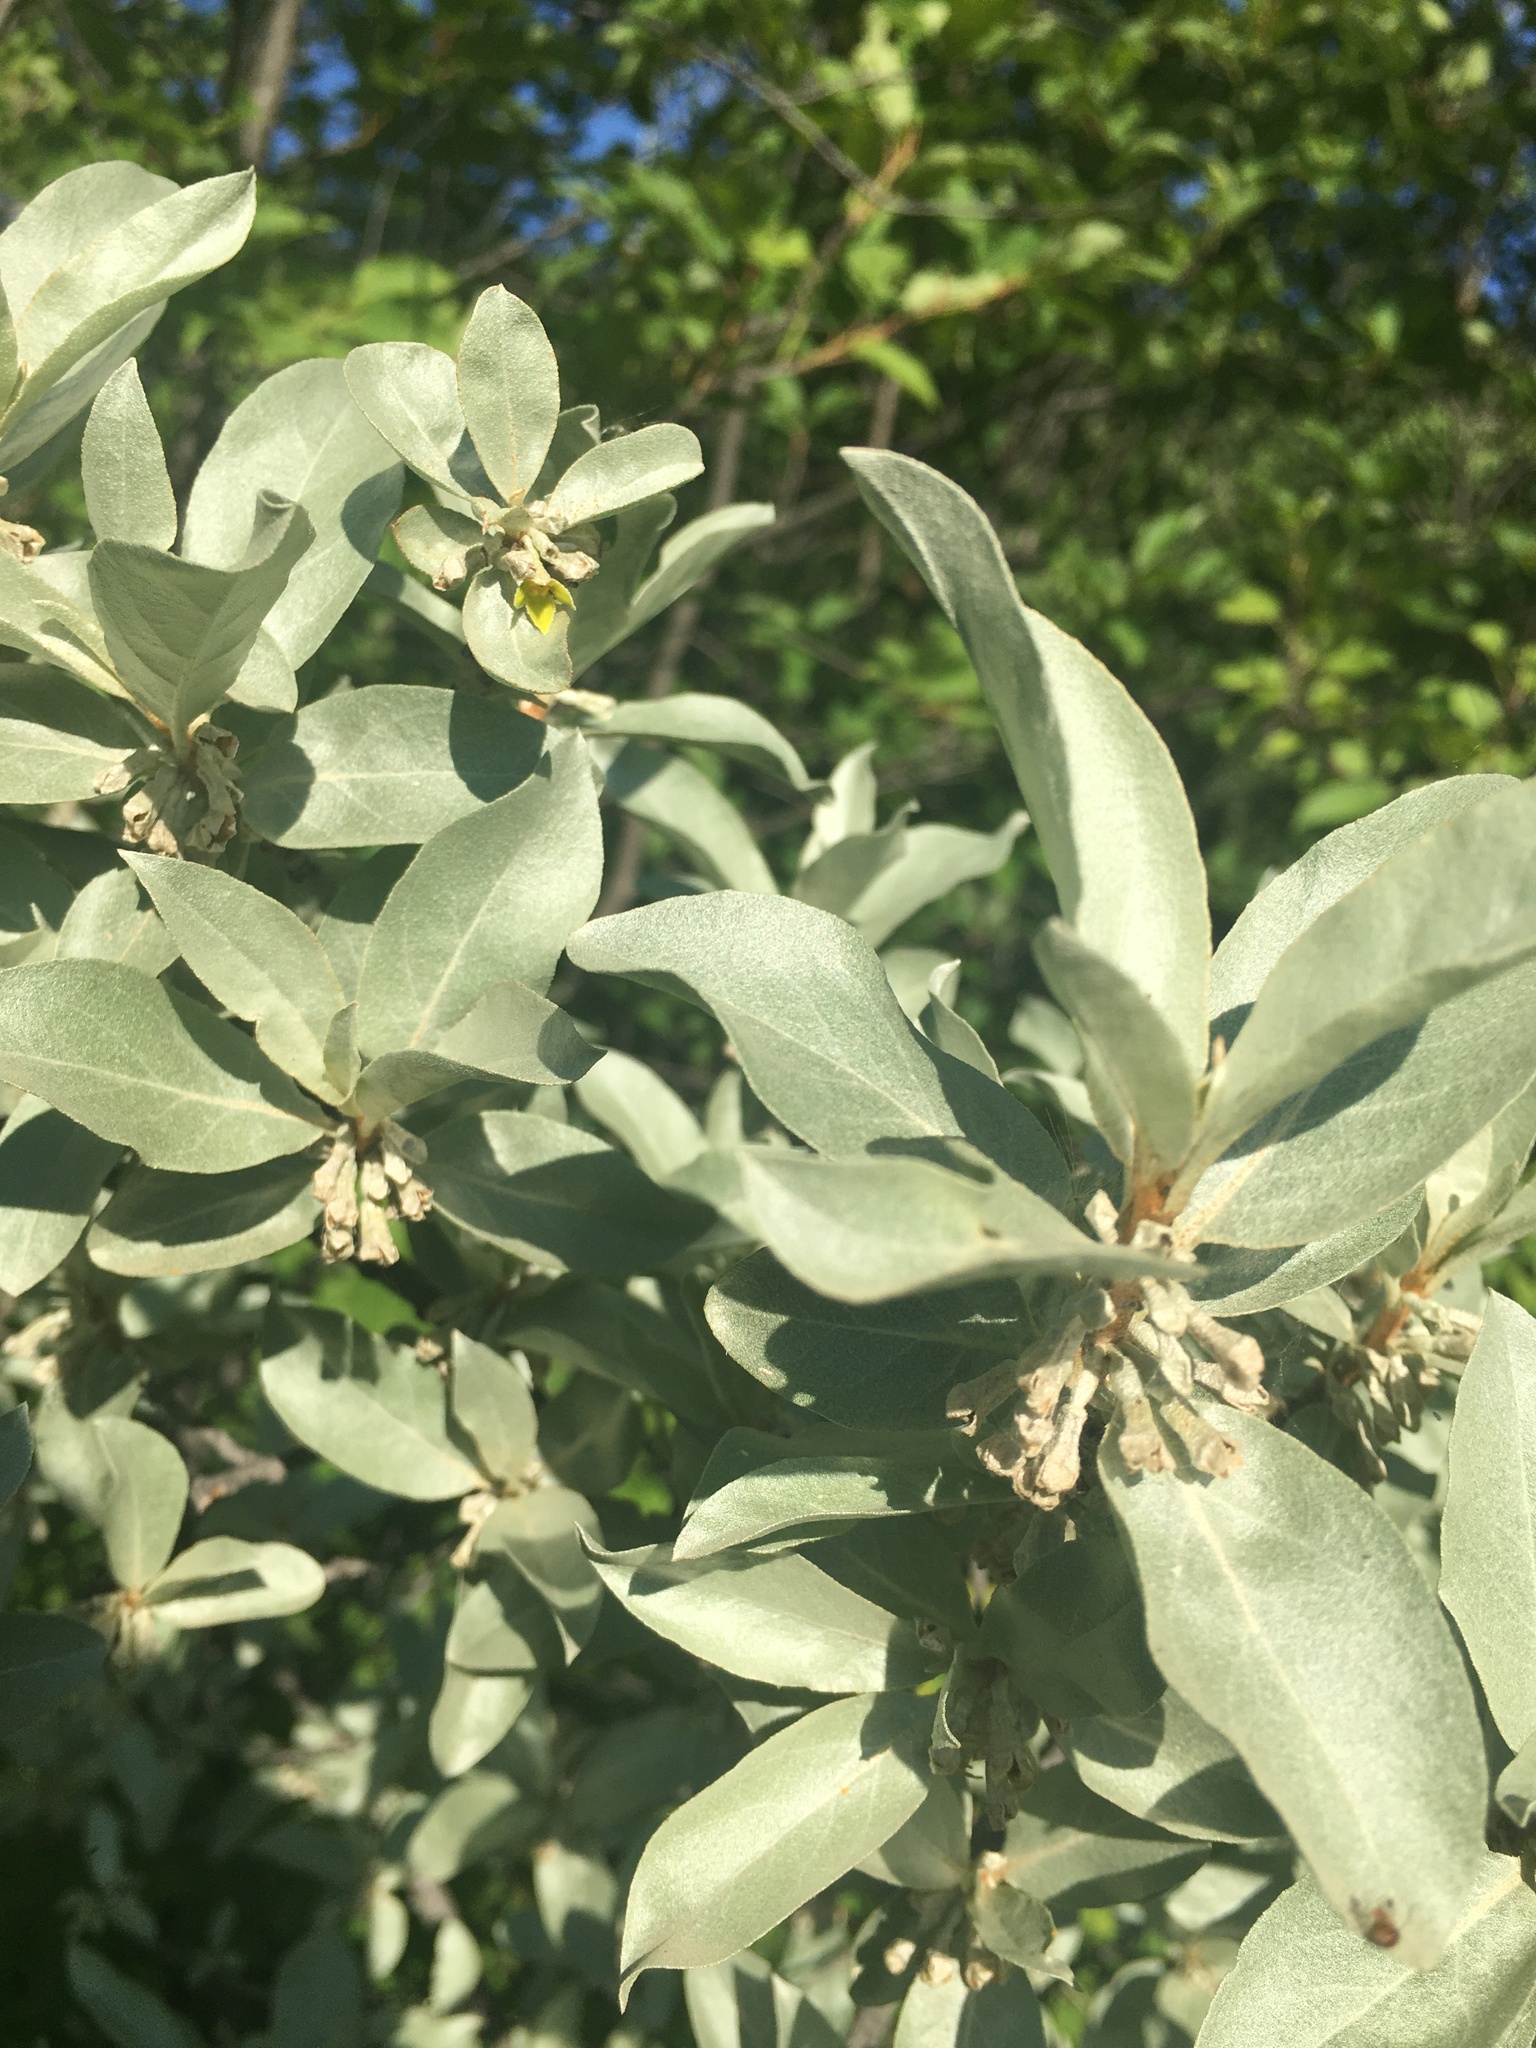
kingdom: Plantae
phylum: Tracheophyta
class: Magnoliopsida
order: Rosales
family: Elaeagnaceae
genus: Elaeagnus
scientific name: Elaeagnus commutata
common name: Silverberry
